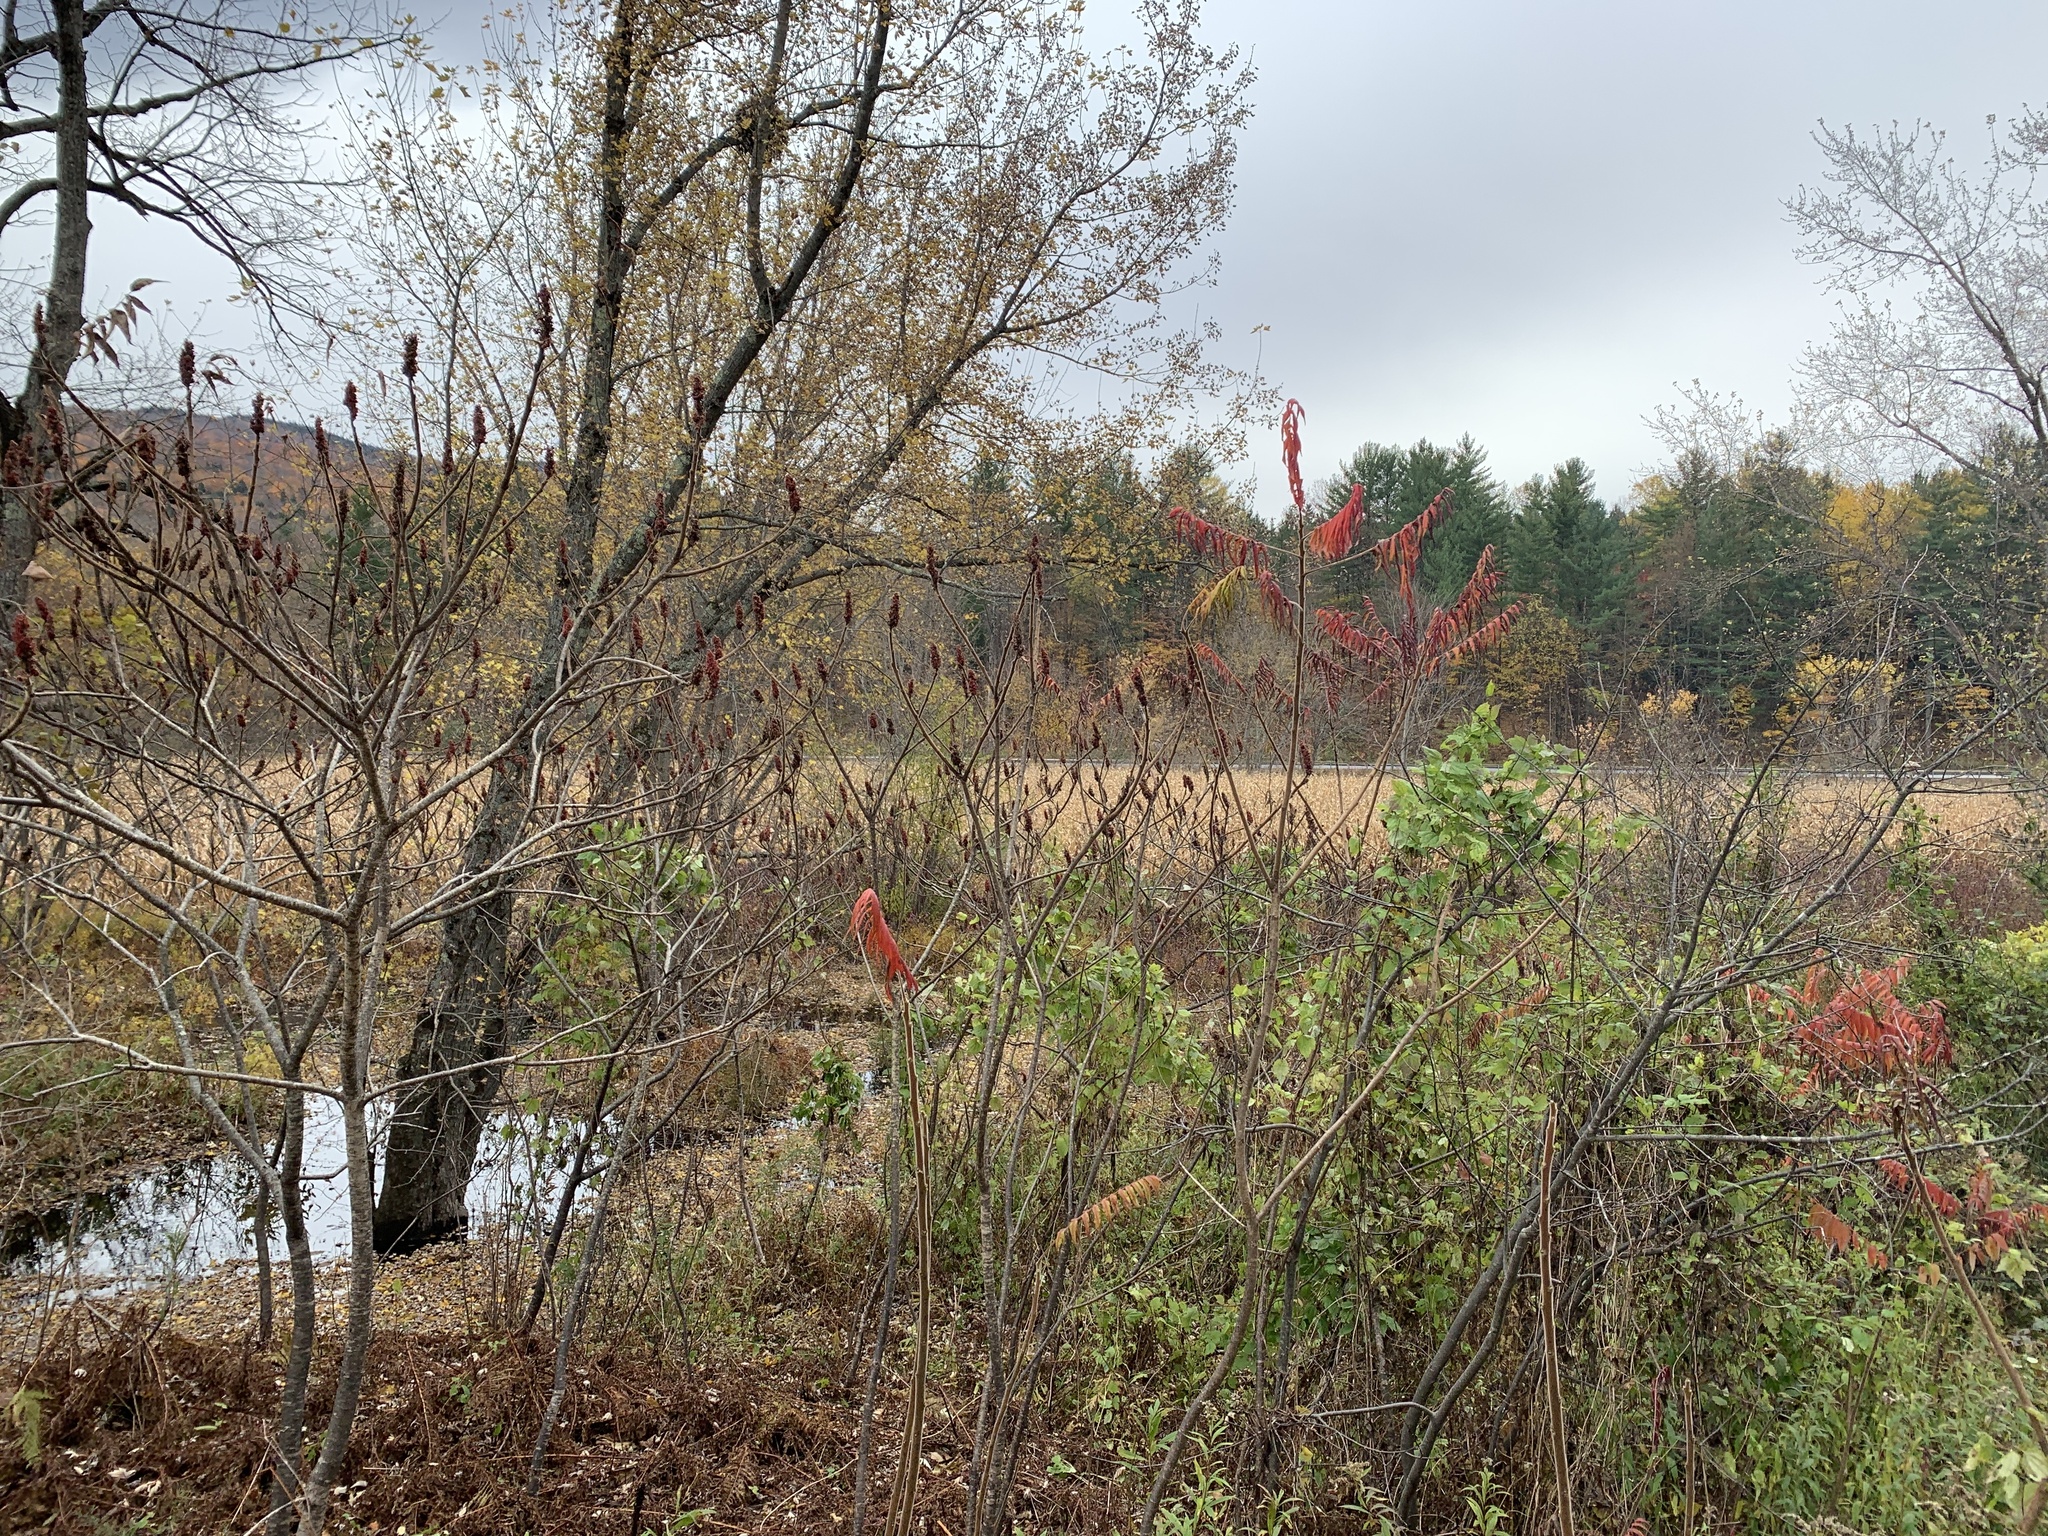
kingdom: Plantae
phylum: Tracheophyta
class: Magnoliopsida
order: Sapindales
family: Anacardiaceae
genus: Rhus
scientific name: Rhus typhina
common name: Staghorn sumac
